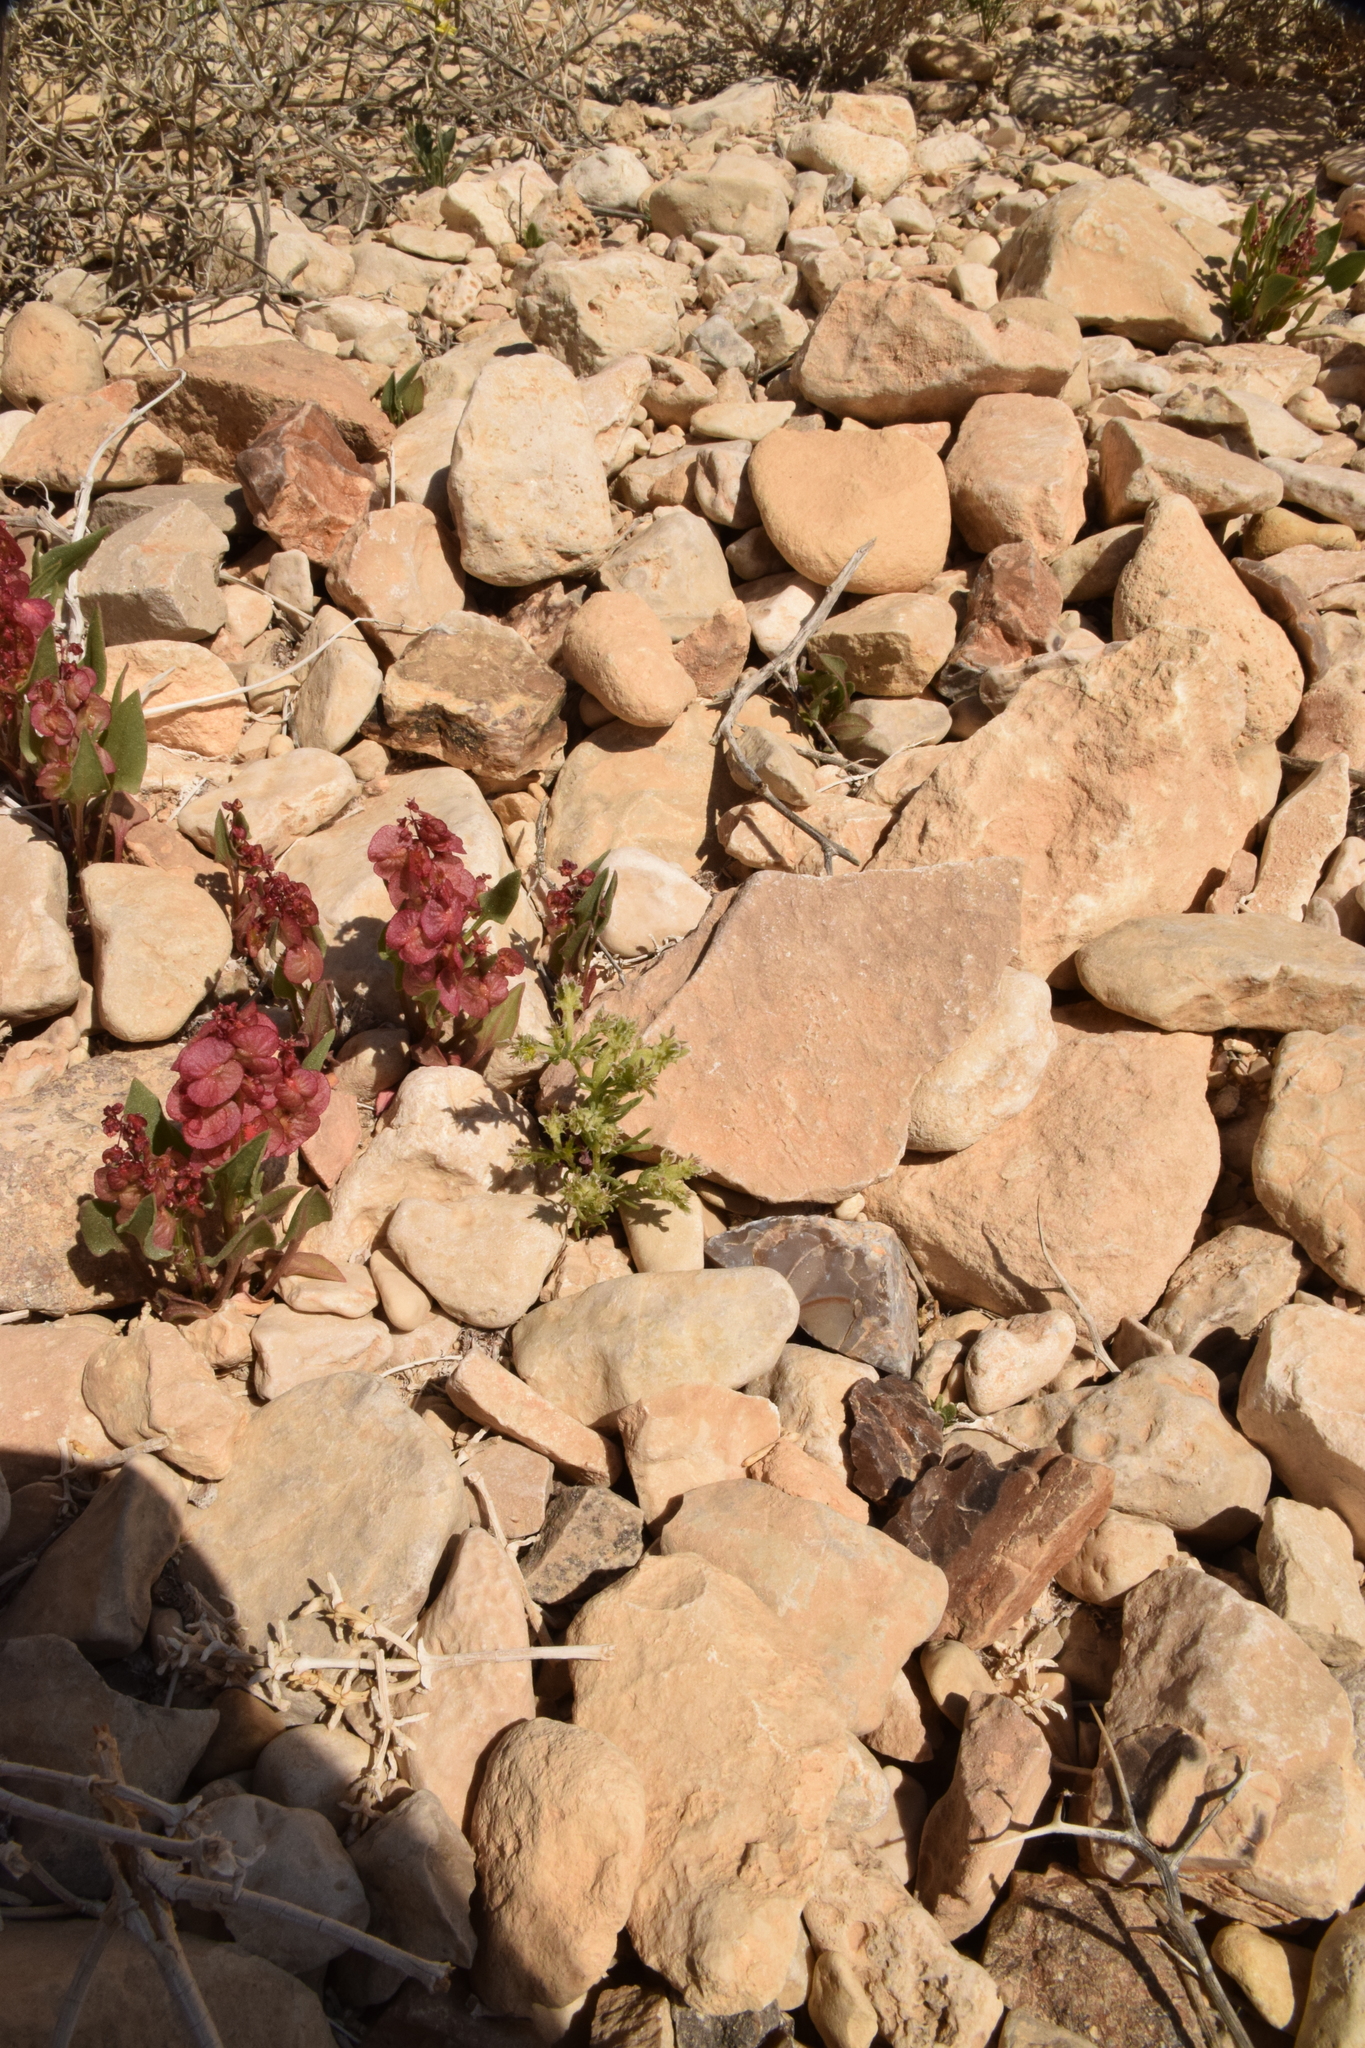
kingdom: Plantae
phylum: Tracheophyta
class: Magnoliopsida
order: Caryophyllales
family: Caryophyllaceae
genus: Pteranthus
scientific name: Pteranthus dichotomus
